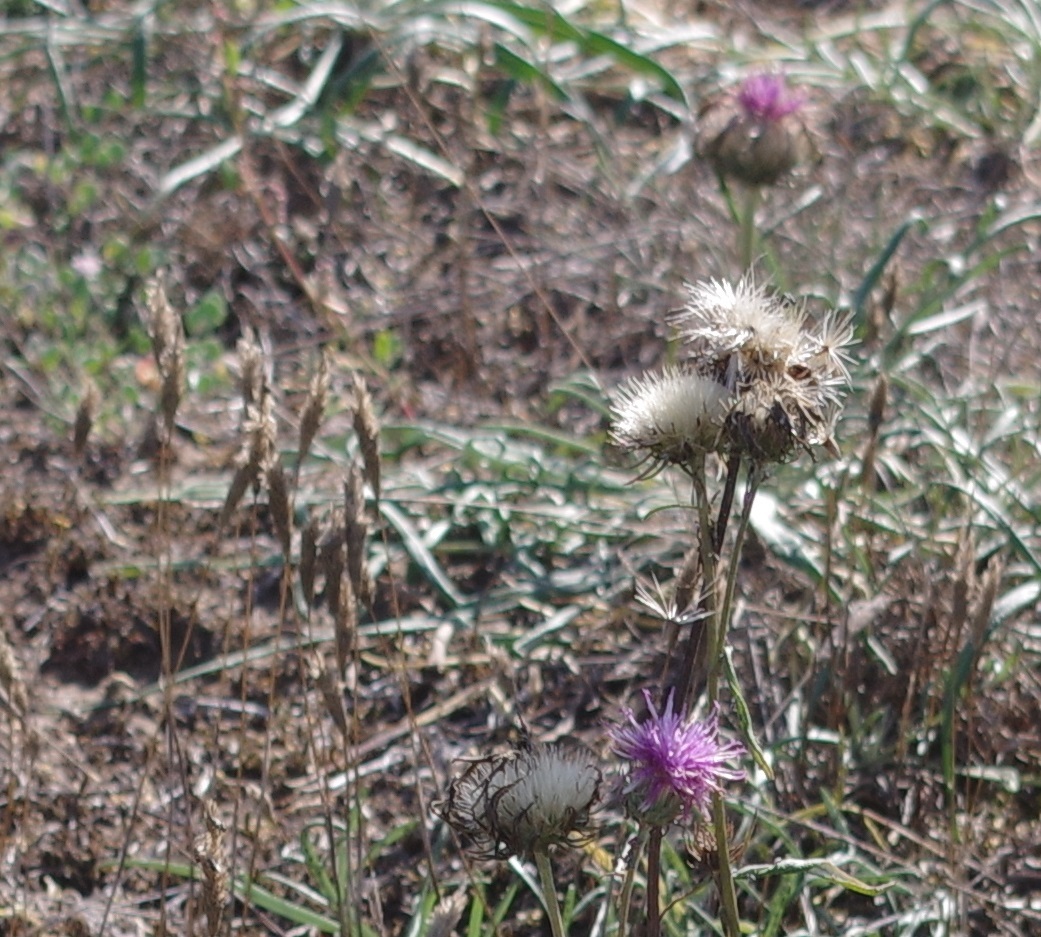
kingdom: Plantae
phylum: Tracheophyta
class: Magnoliopsida
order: Asterales
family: Asteraceae
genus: Jurinea
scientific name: Jurinea cyanoides
